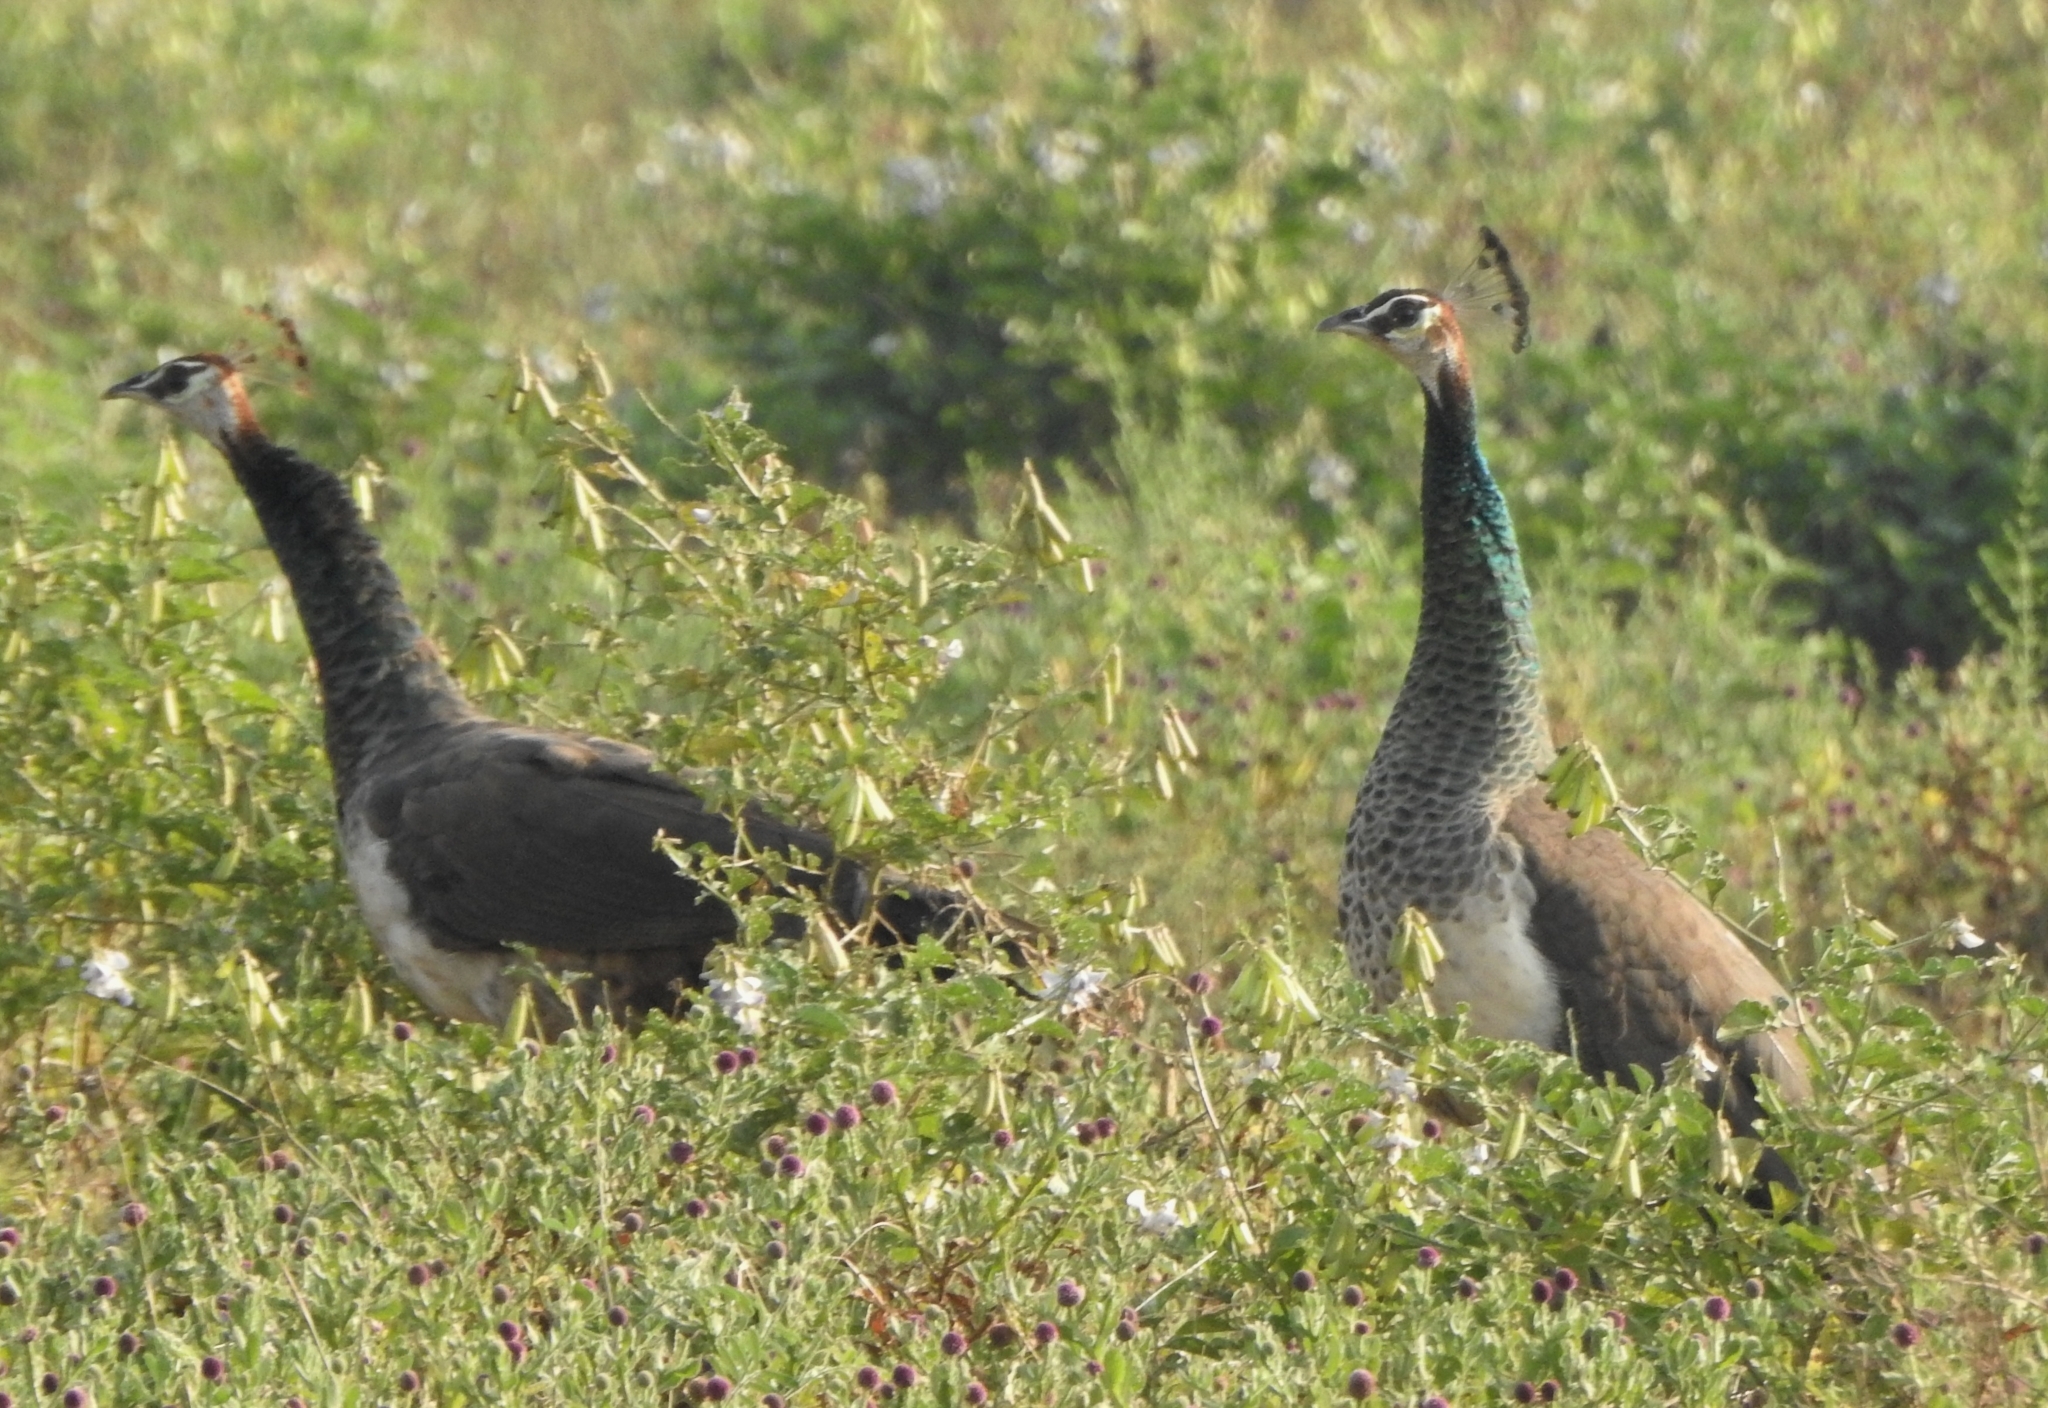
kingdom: Animalia
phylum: Chordata
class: Aves
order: Galliformes
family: Phasianidae
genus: Pavo
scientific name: Pavo cristatus
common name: Indian peafowl
